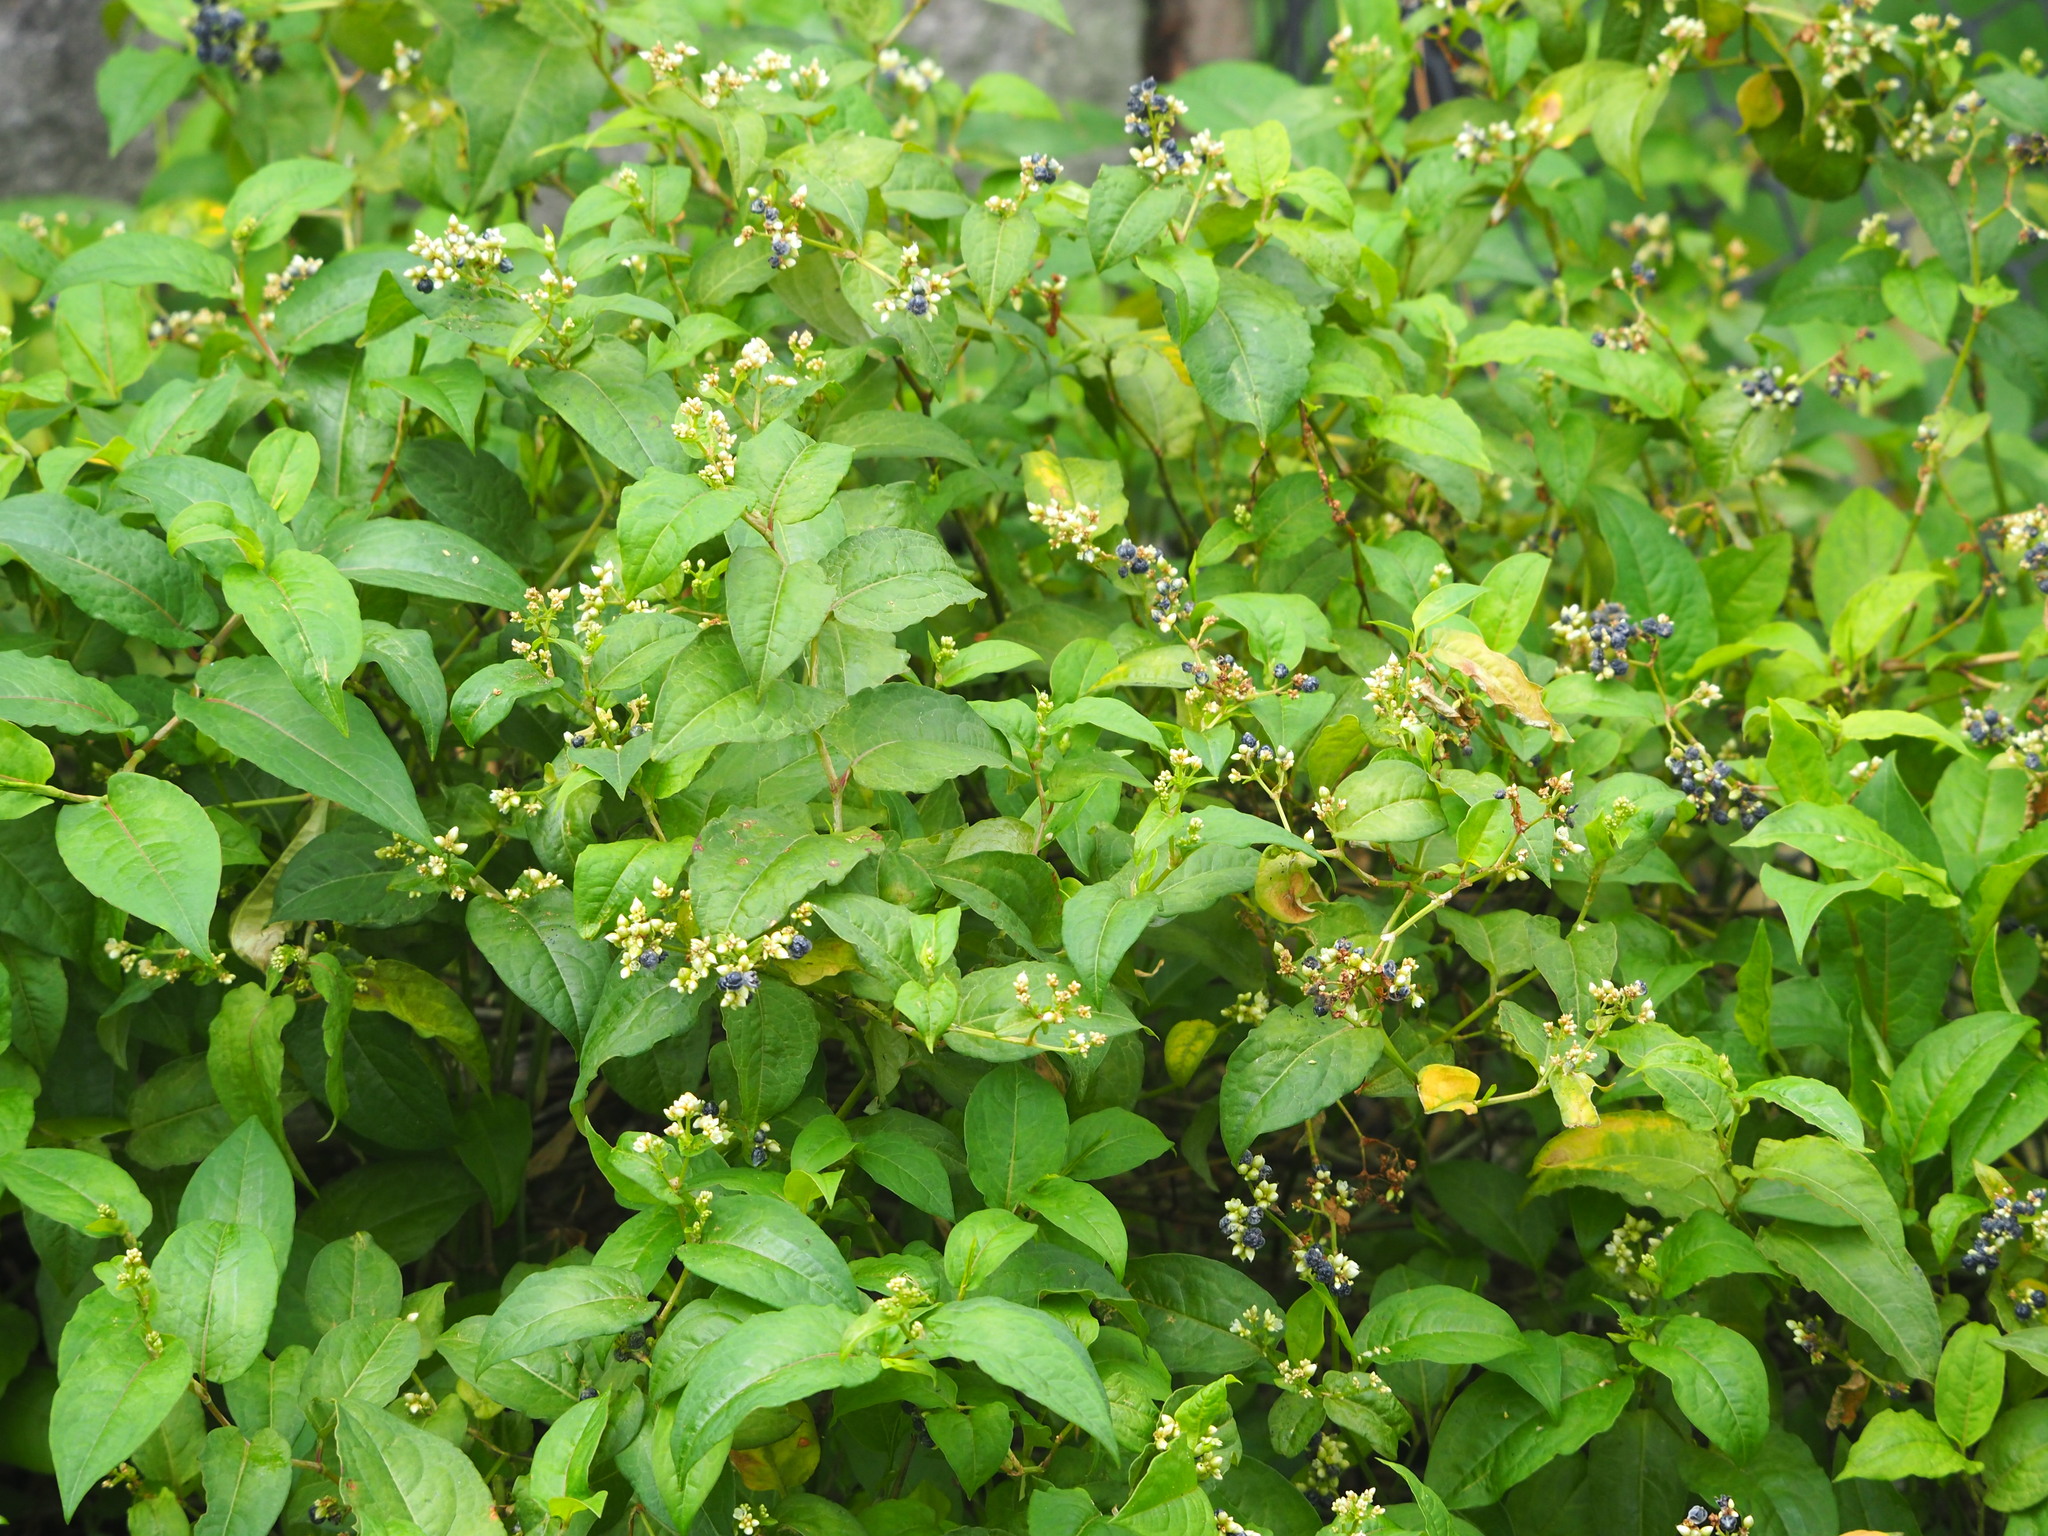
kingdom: Plantae
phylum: Tracheophyta
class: Magnoliopsida
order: Caryophyllales
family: Polygonaceae
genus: Persicaria
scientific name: Persicaria chinensis
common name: Chinese knotweed
